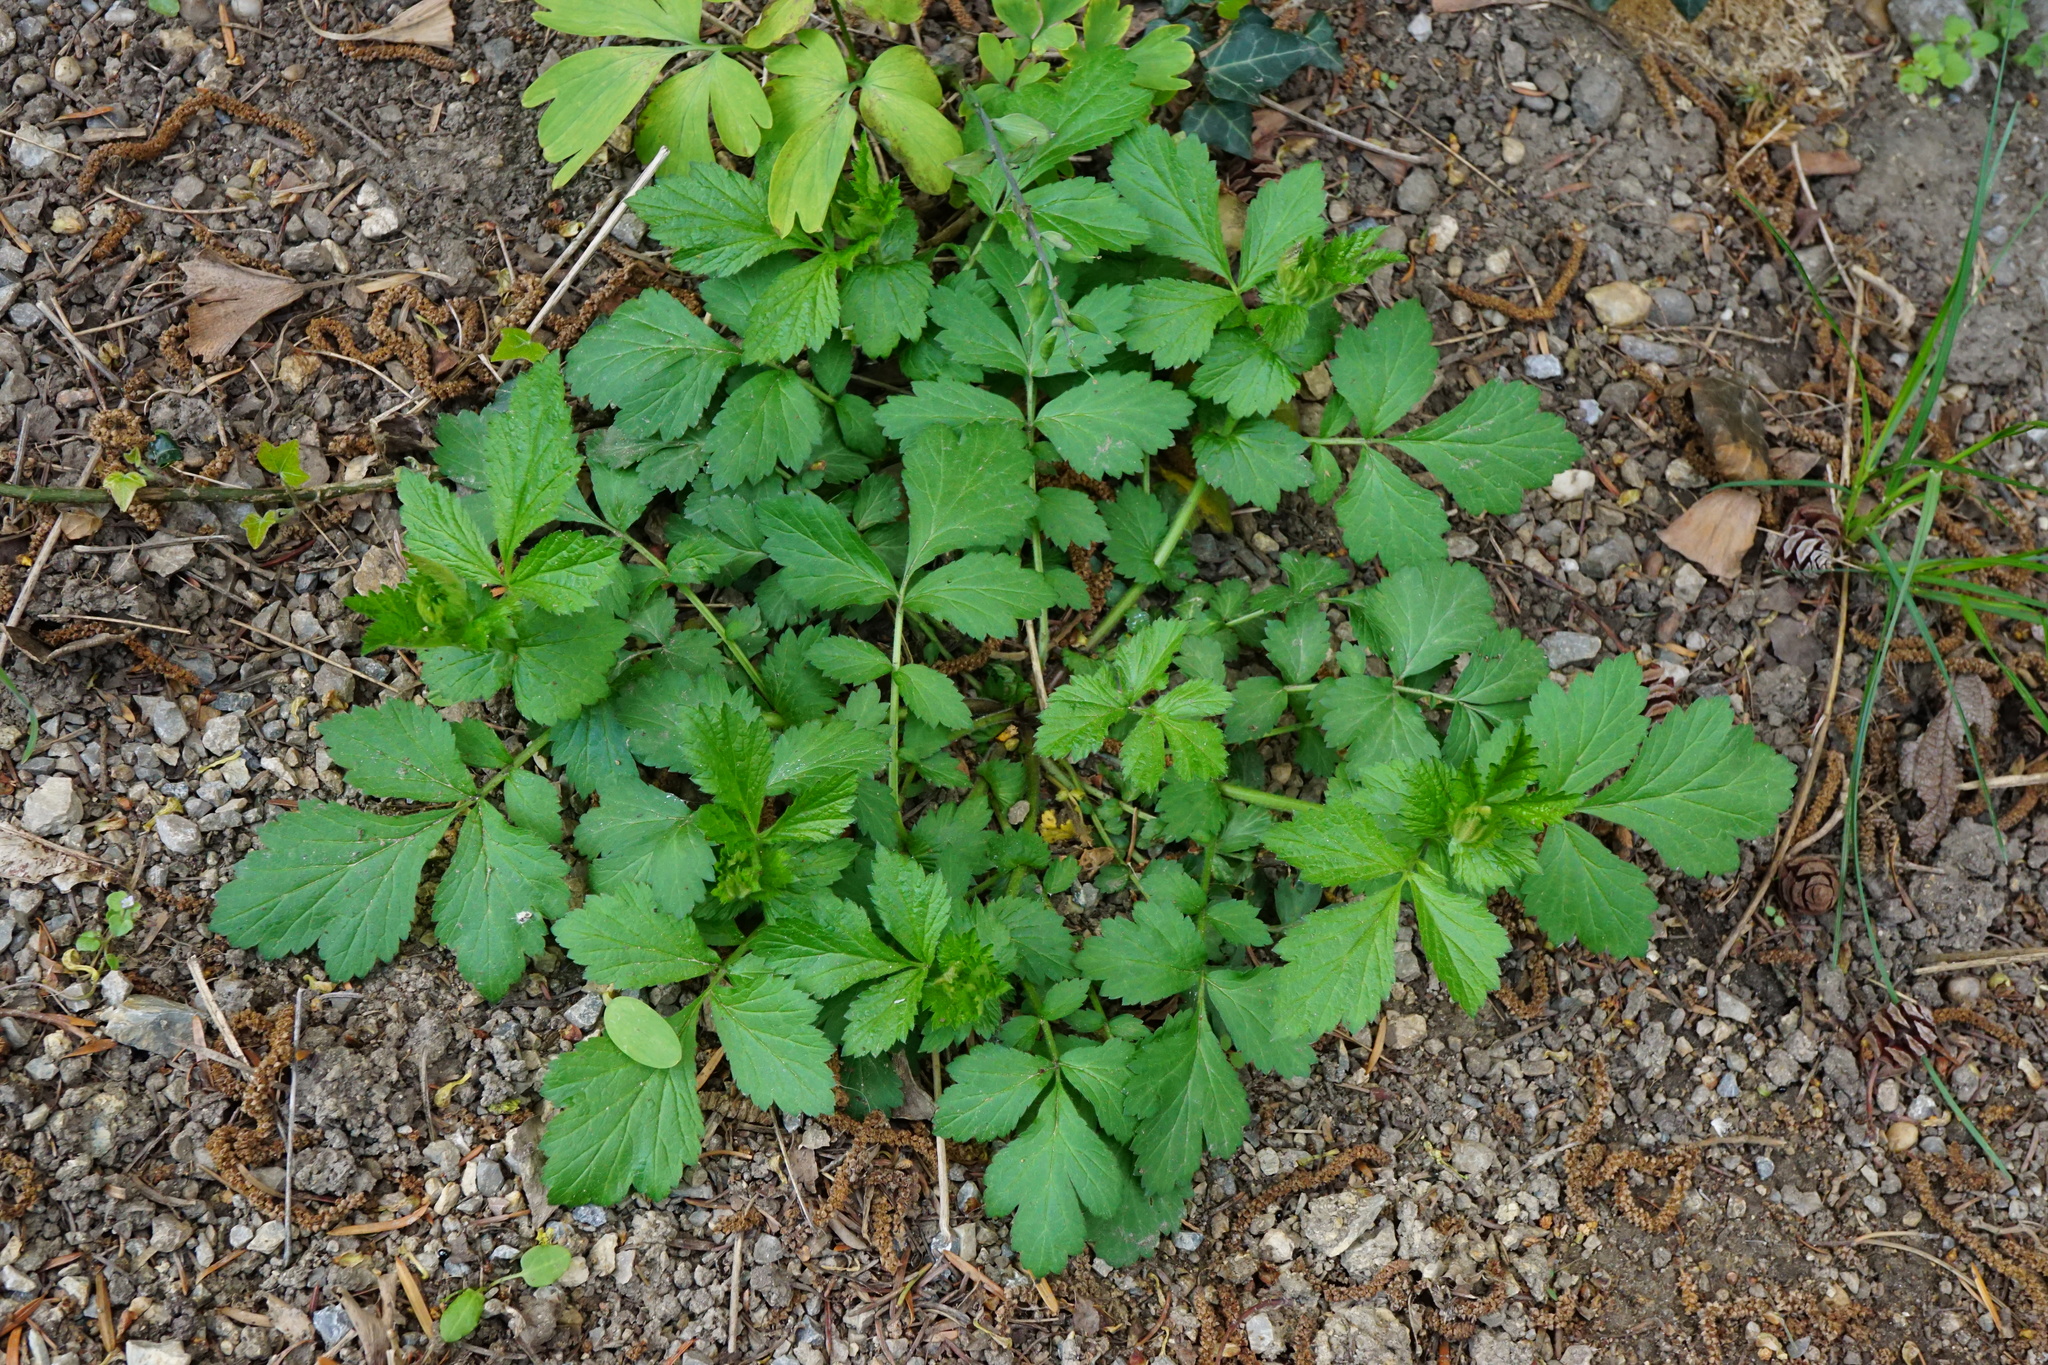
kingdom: Plantae
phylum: Tracheophyta
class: Magnoliopsida
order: Rosales
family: Rosaceae
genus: Geum
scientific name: Geum urbanum
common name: Wood avens
